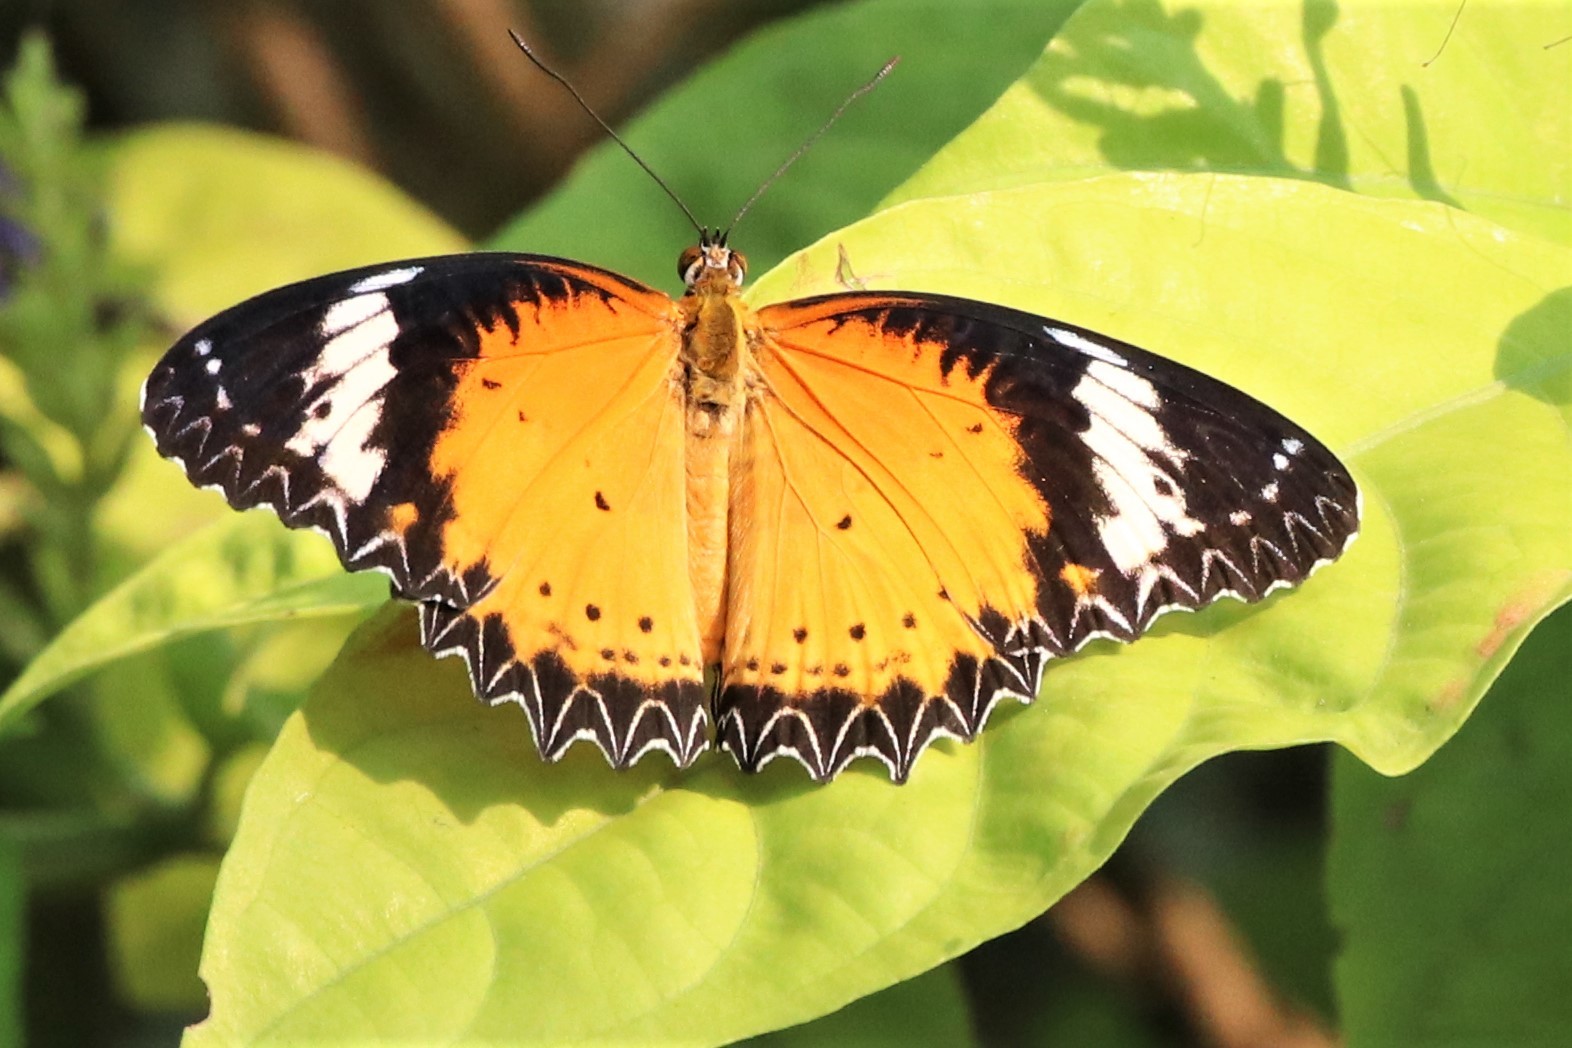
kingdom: Animalia
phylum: Arthropoda
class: Insecta
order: Lepidoptera
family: Nymphalidae
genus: Cethosia
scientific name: Cethosia cyane
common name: Leopard lacewing butterfly
